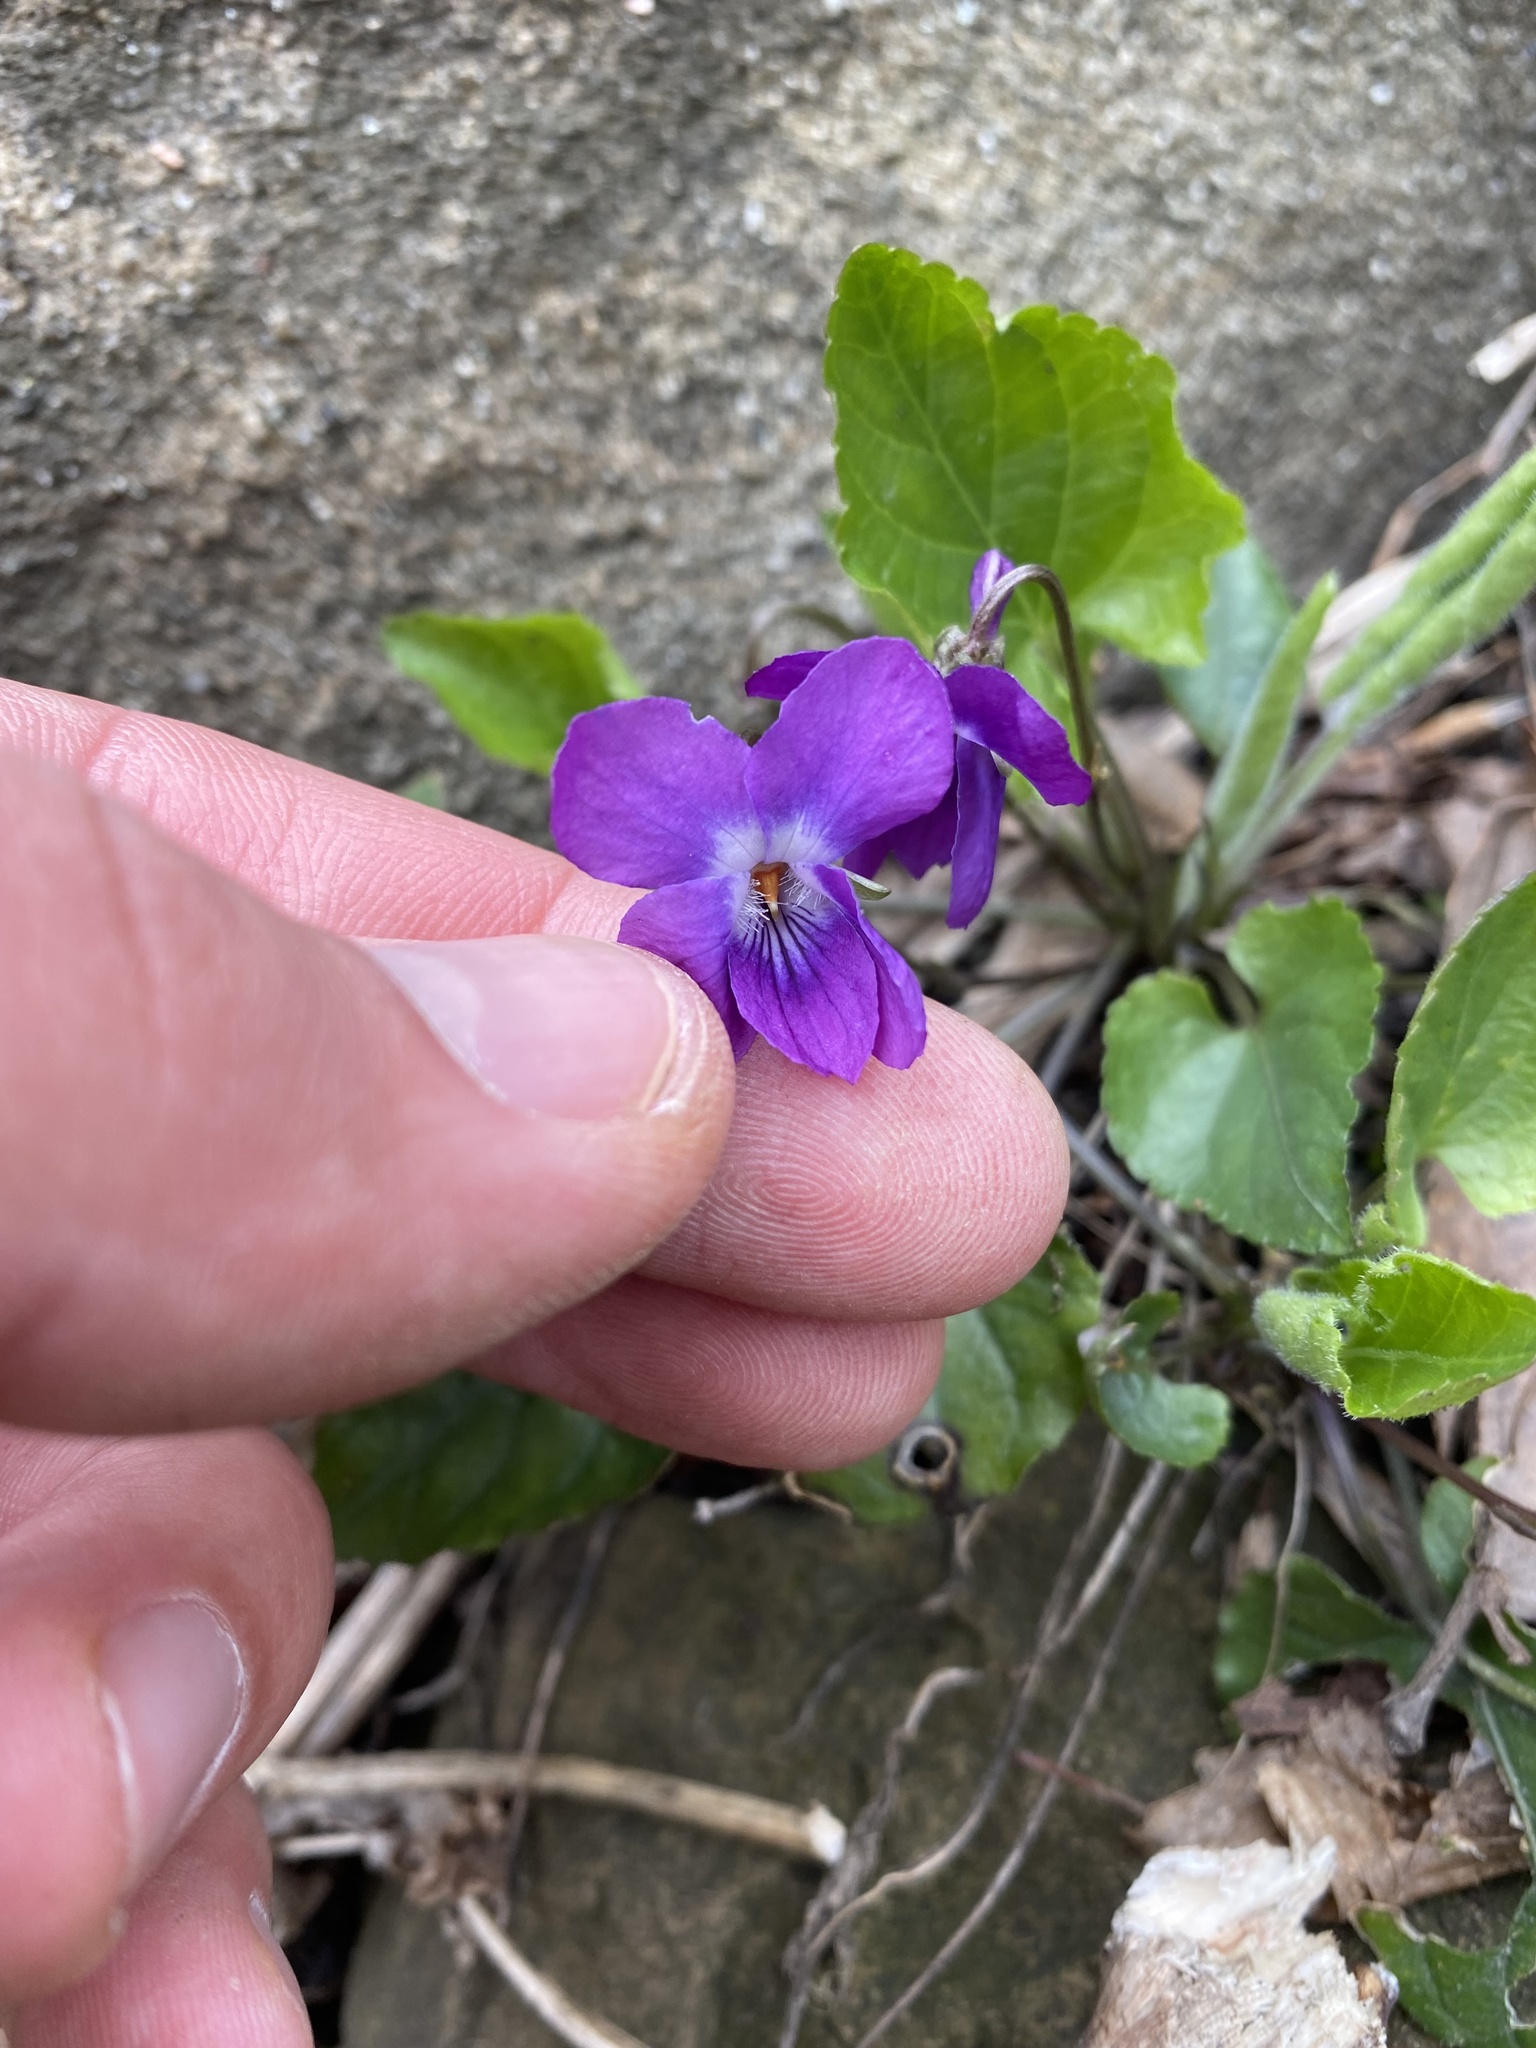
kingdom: Plantae
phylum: Tracheophyta
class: Magnoliopsida
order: Malpighiales
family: Violaceae
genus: Viola
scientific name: Viola alba
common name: White violet
